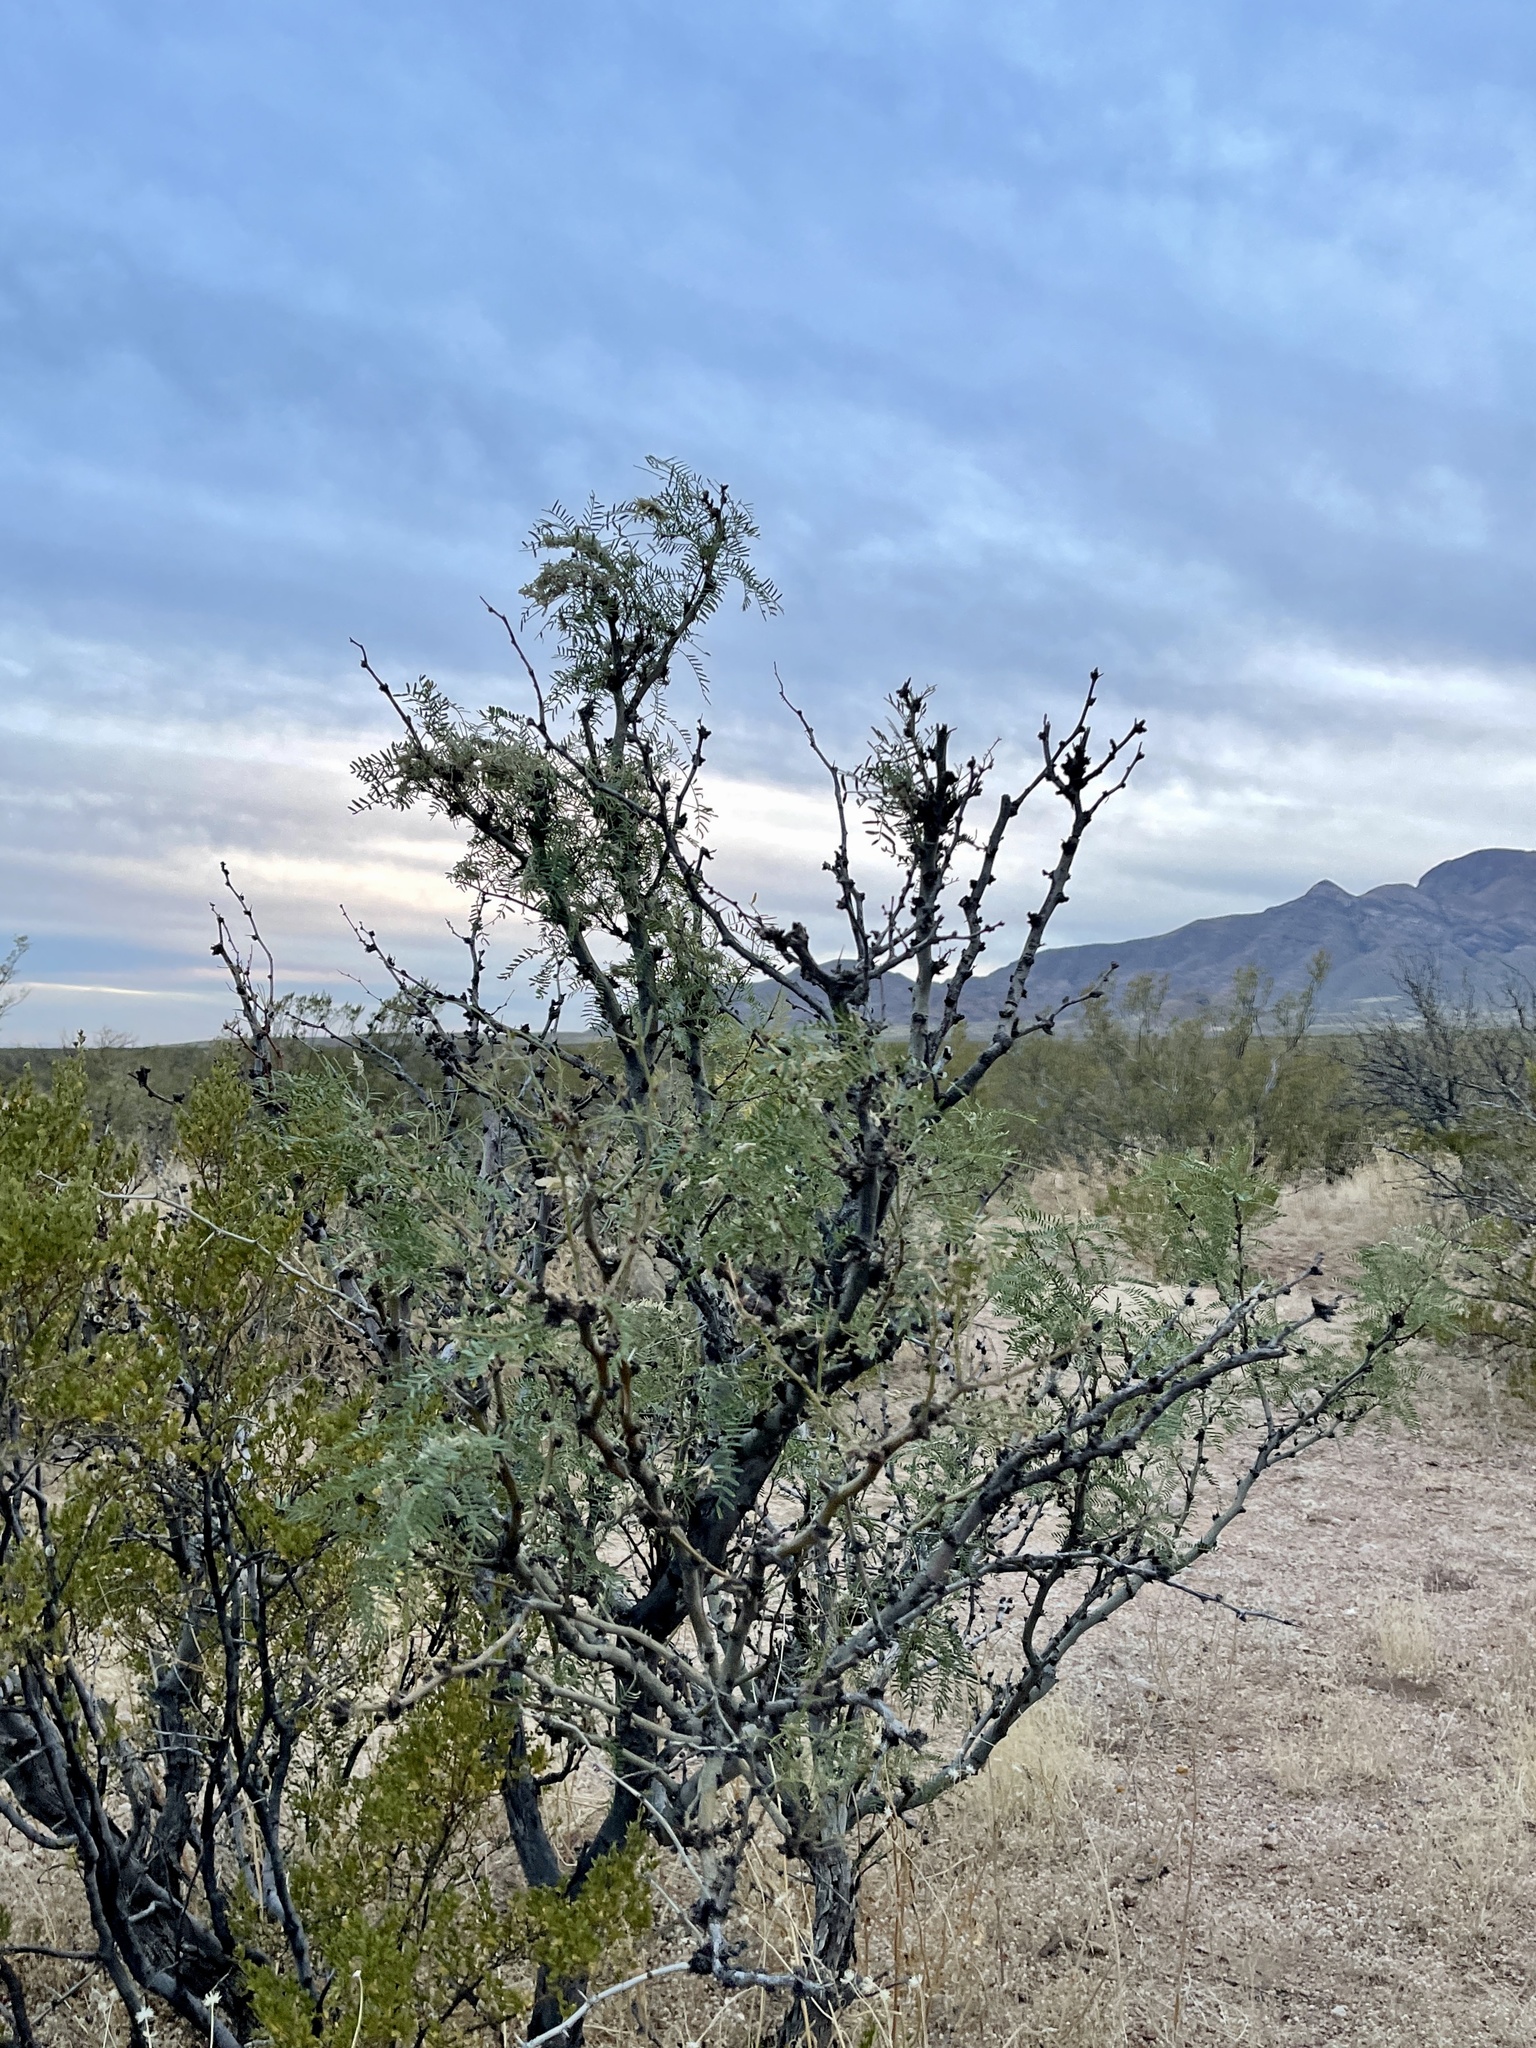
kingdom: Plantae
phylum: Tracheophyta
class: Magnoliopsida
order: Fabales
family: Fabaceae
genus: Prosopis
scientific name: Prosopis glandulosa
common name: Honey mesquite
